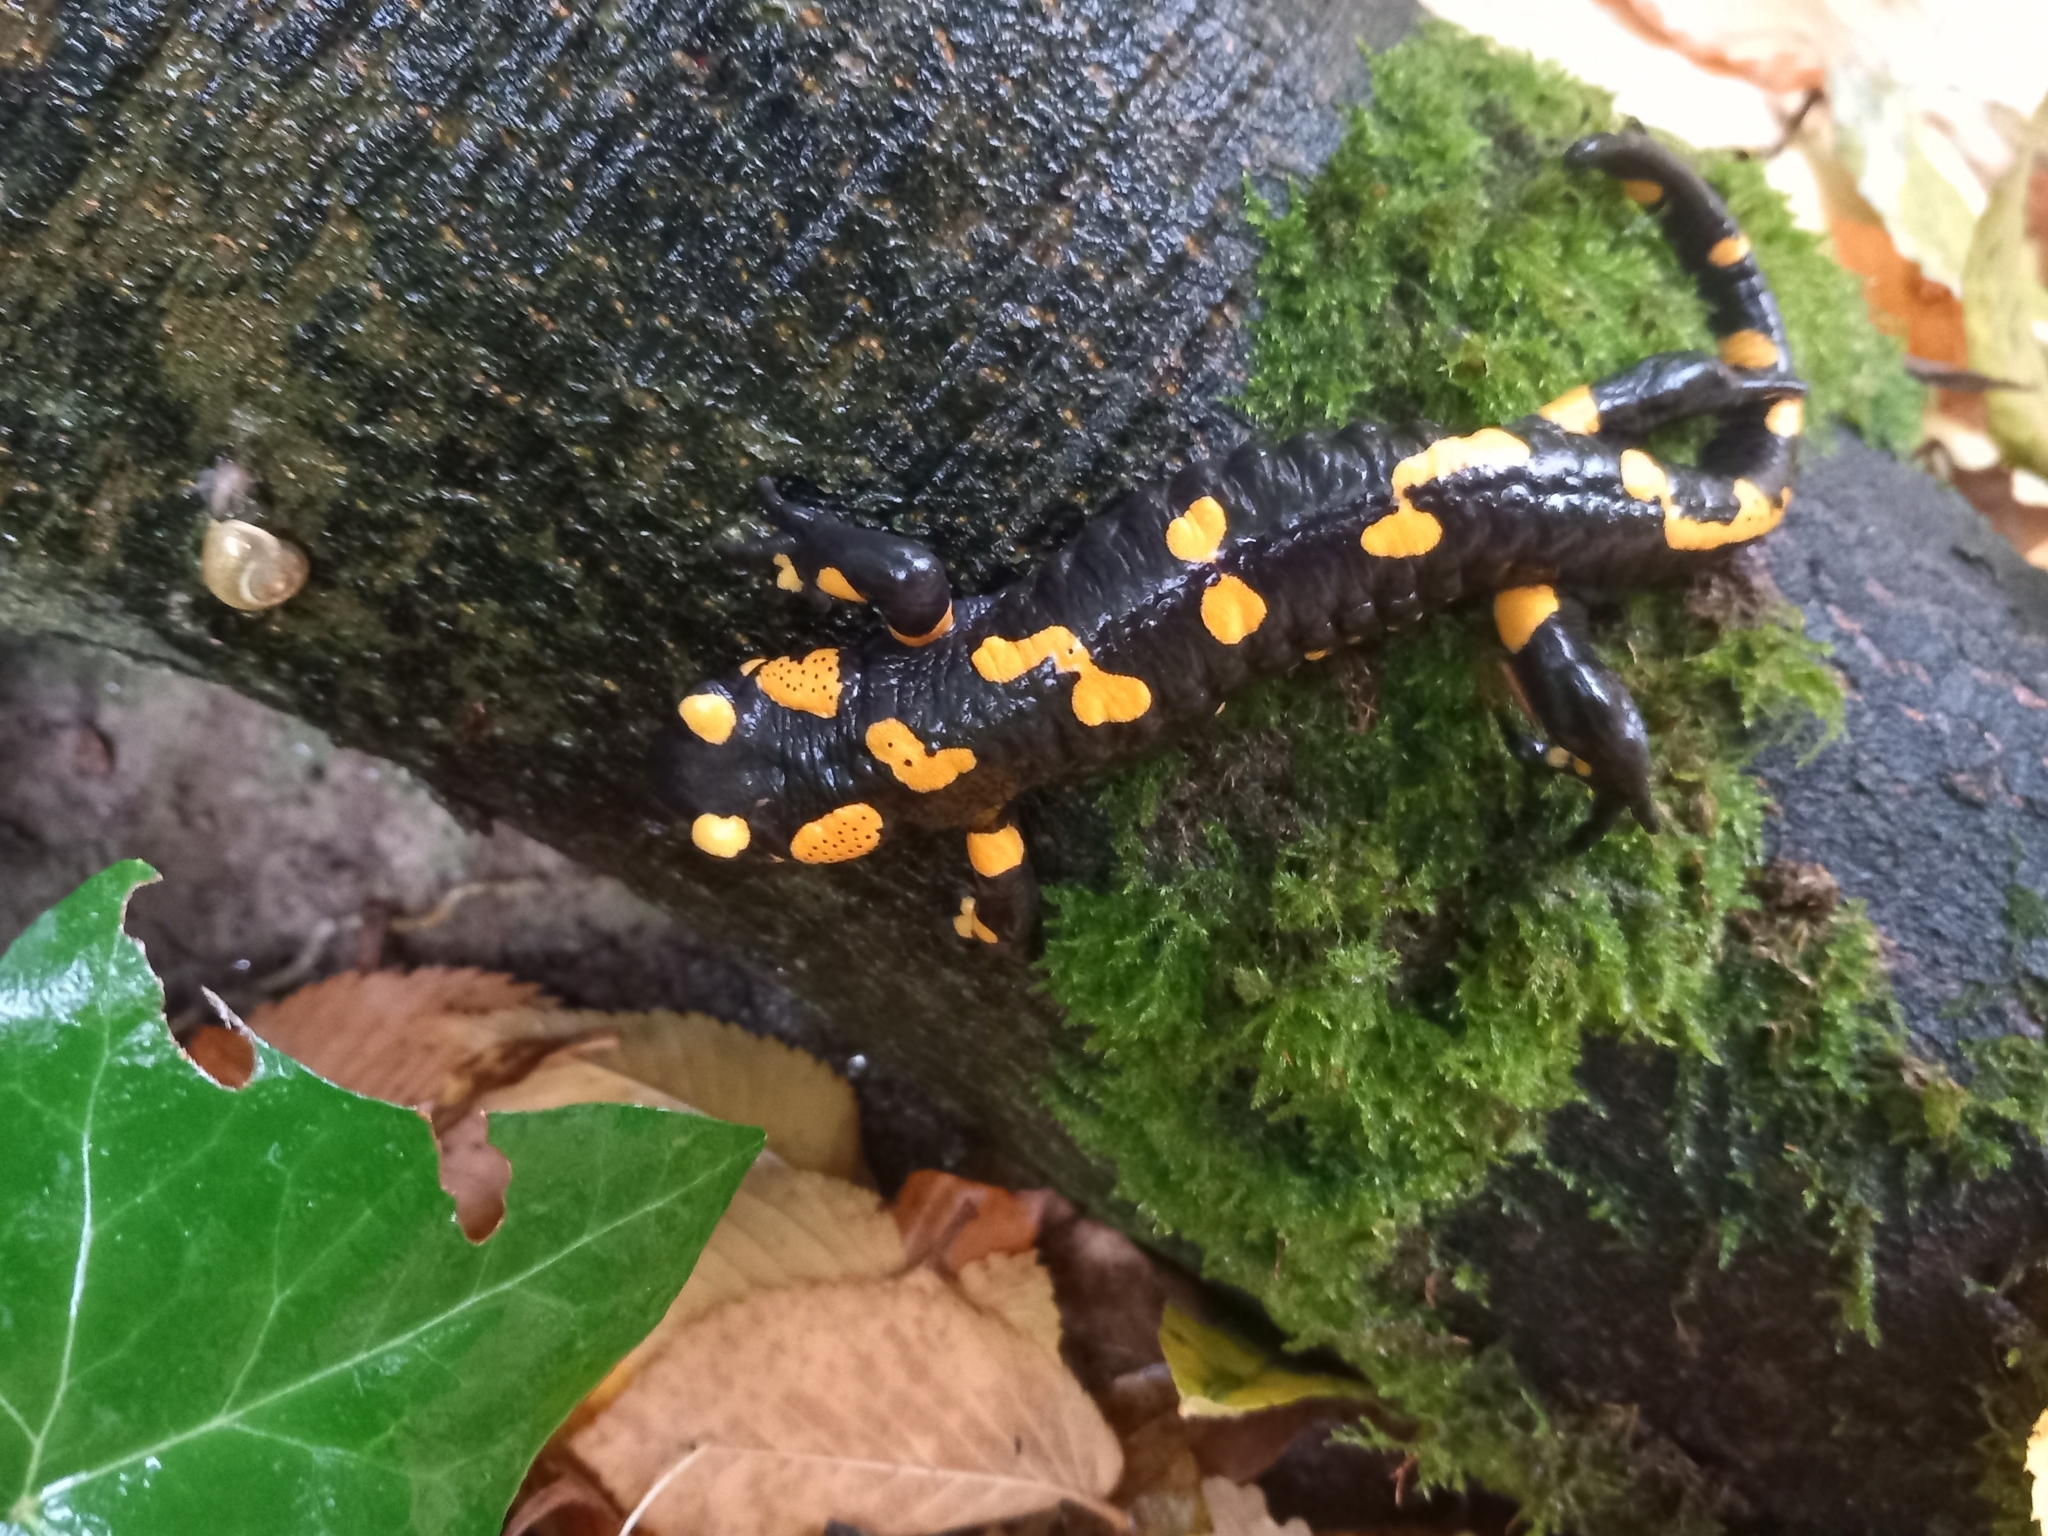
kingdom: Animalia
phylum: Chordata
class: Amphibia
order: Caudata
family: Salamandridae
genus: Salamandra
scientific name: Salamandra salamandra
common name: Fire salamander
